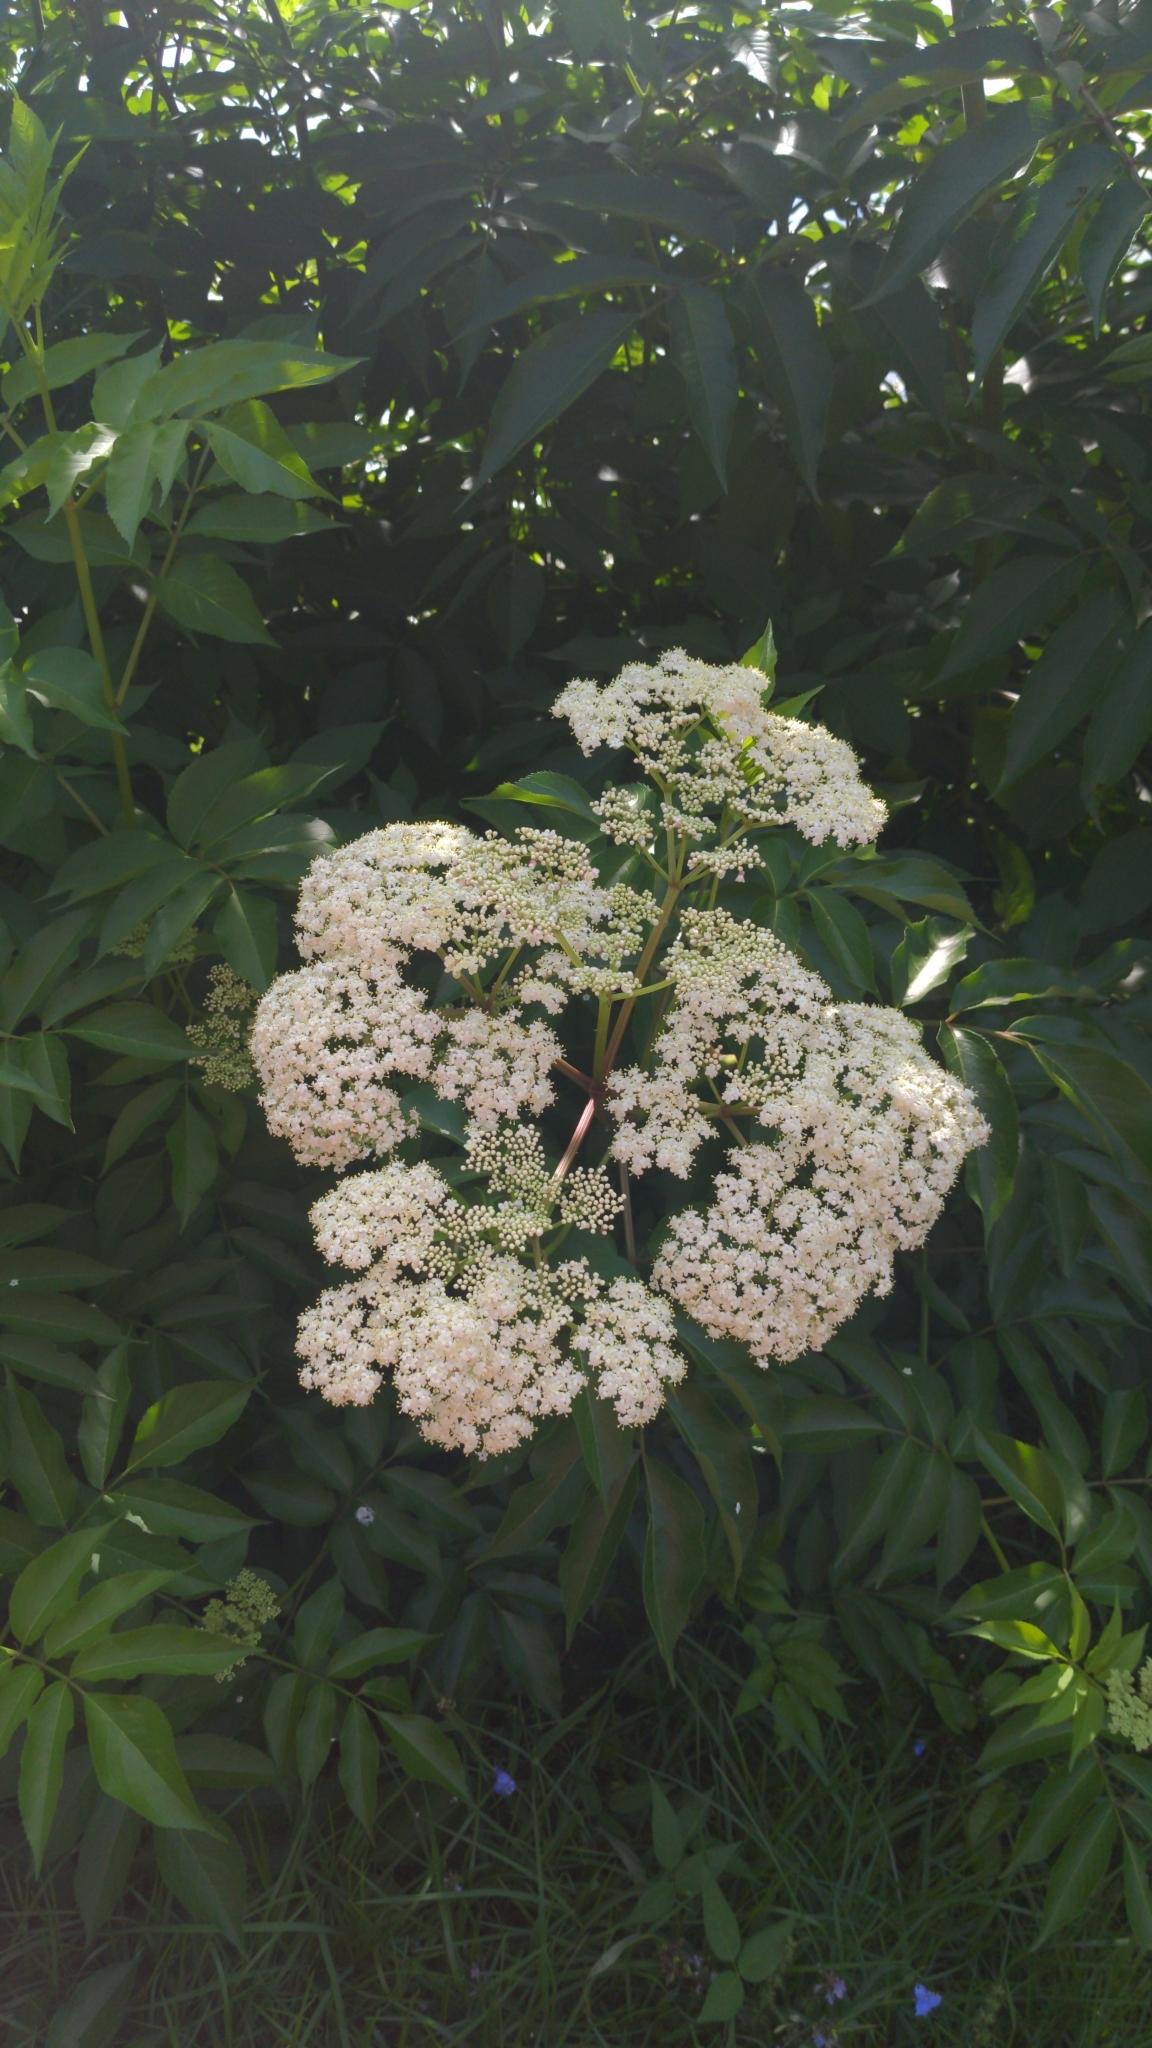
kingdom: Plantae
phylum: Tracheophyta
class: Magnoliopsida
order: Dipsacales
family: Viburnaceae
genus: Sambucus
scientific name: Sambucus canadensis
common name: American elder
